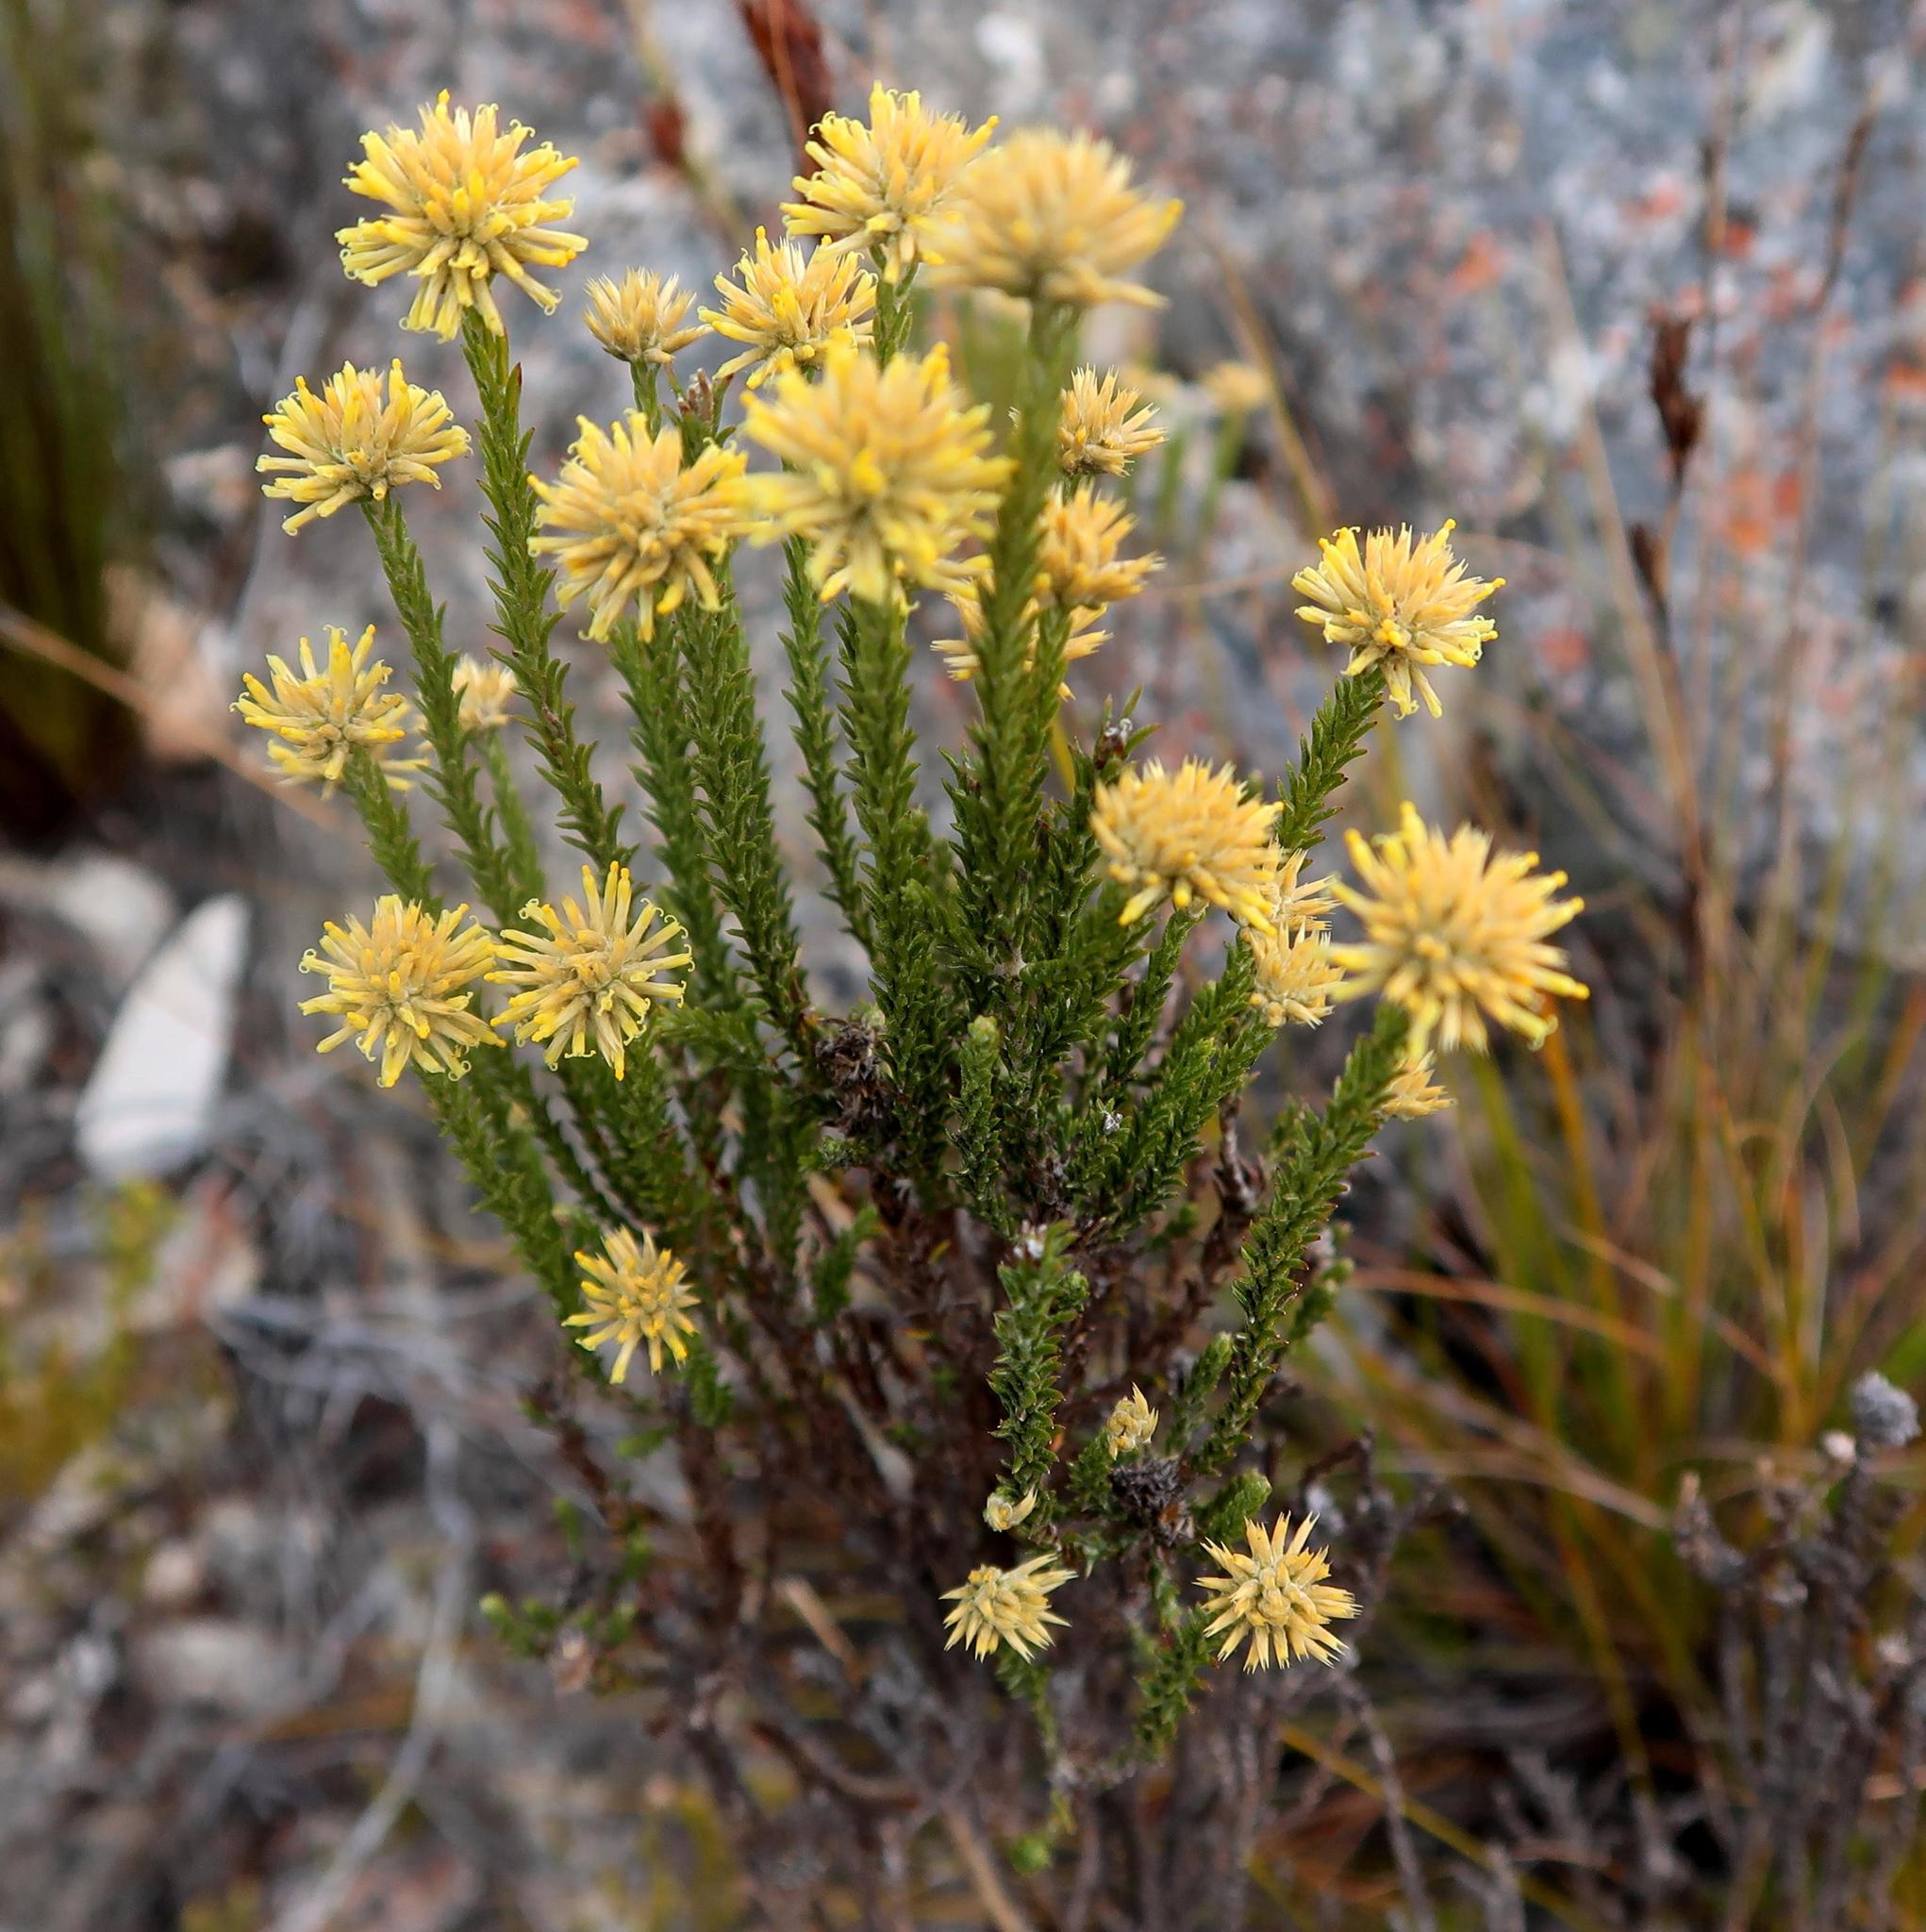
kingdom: Plantae
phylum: Tracheophyta
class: Magnoliopsida
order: Asterales
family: Asteraceae
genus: Seriphium
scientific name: Seriphium spirale
